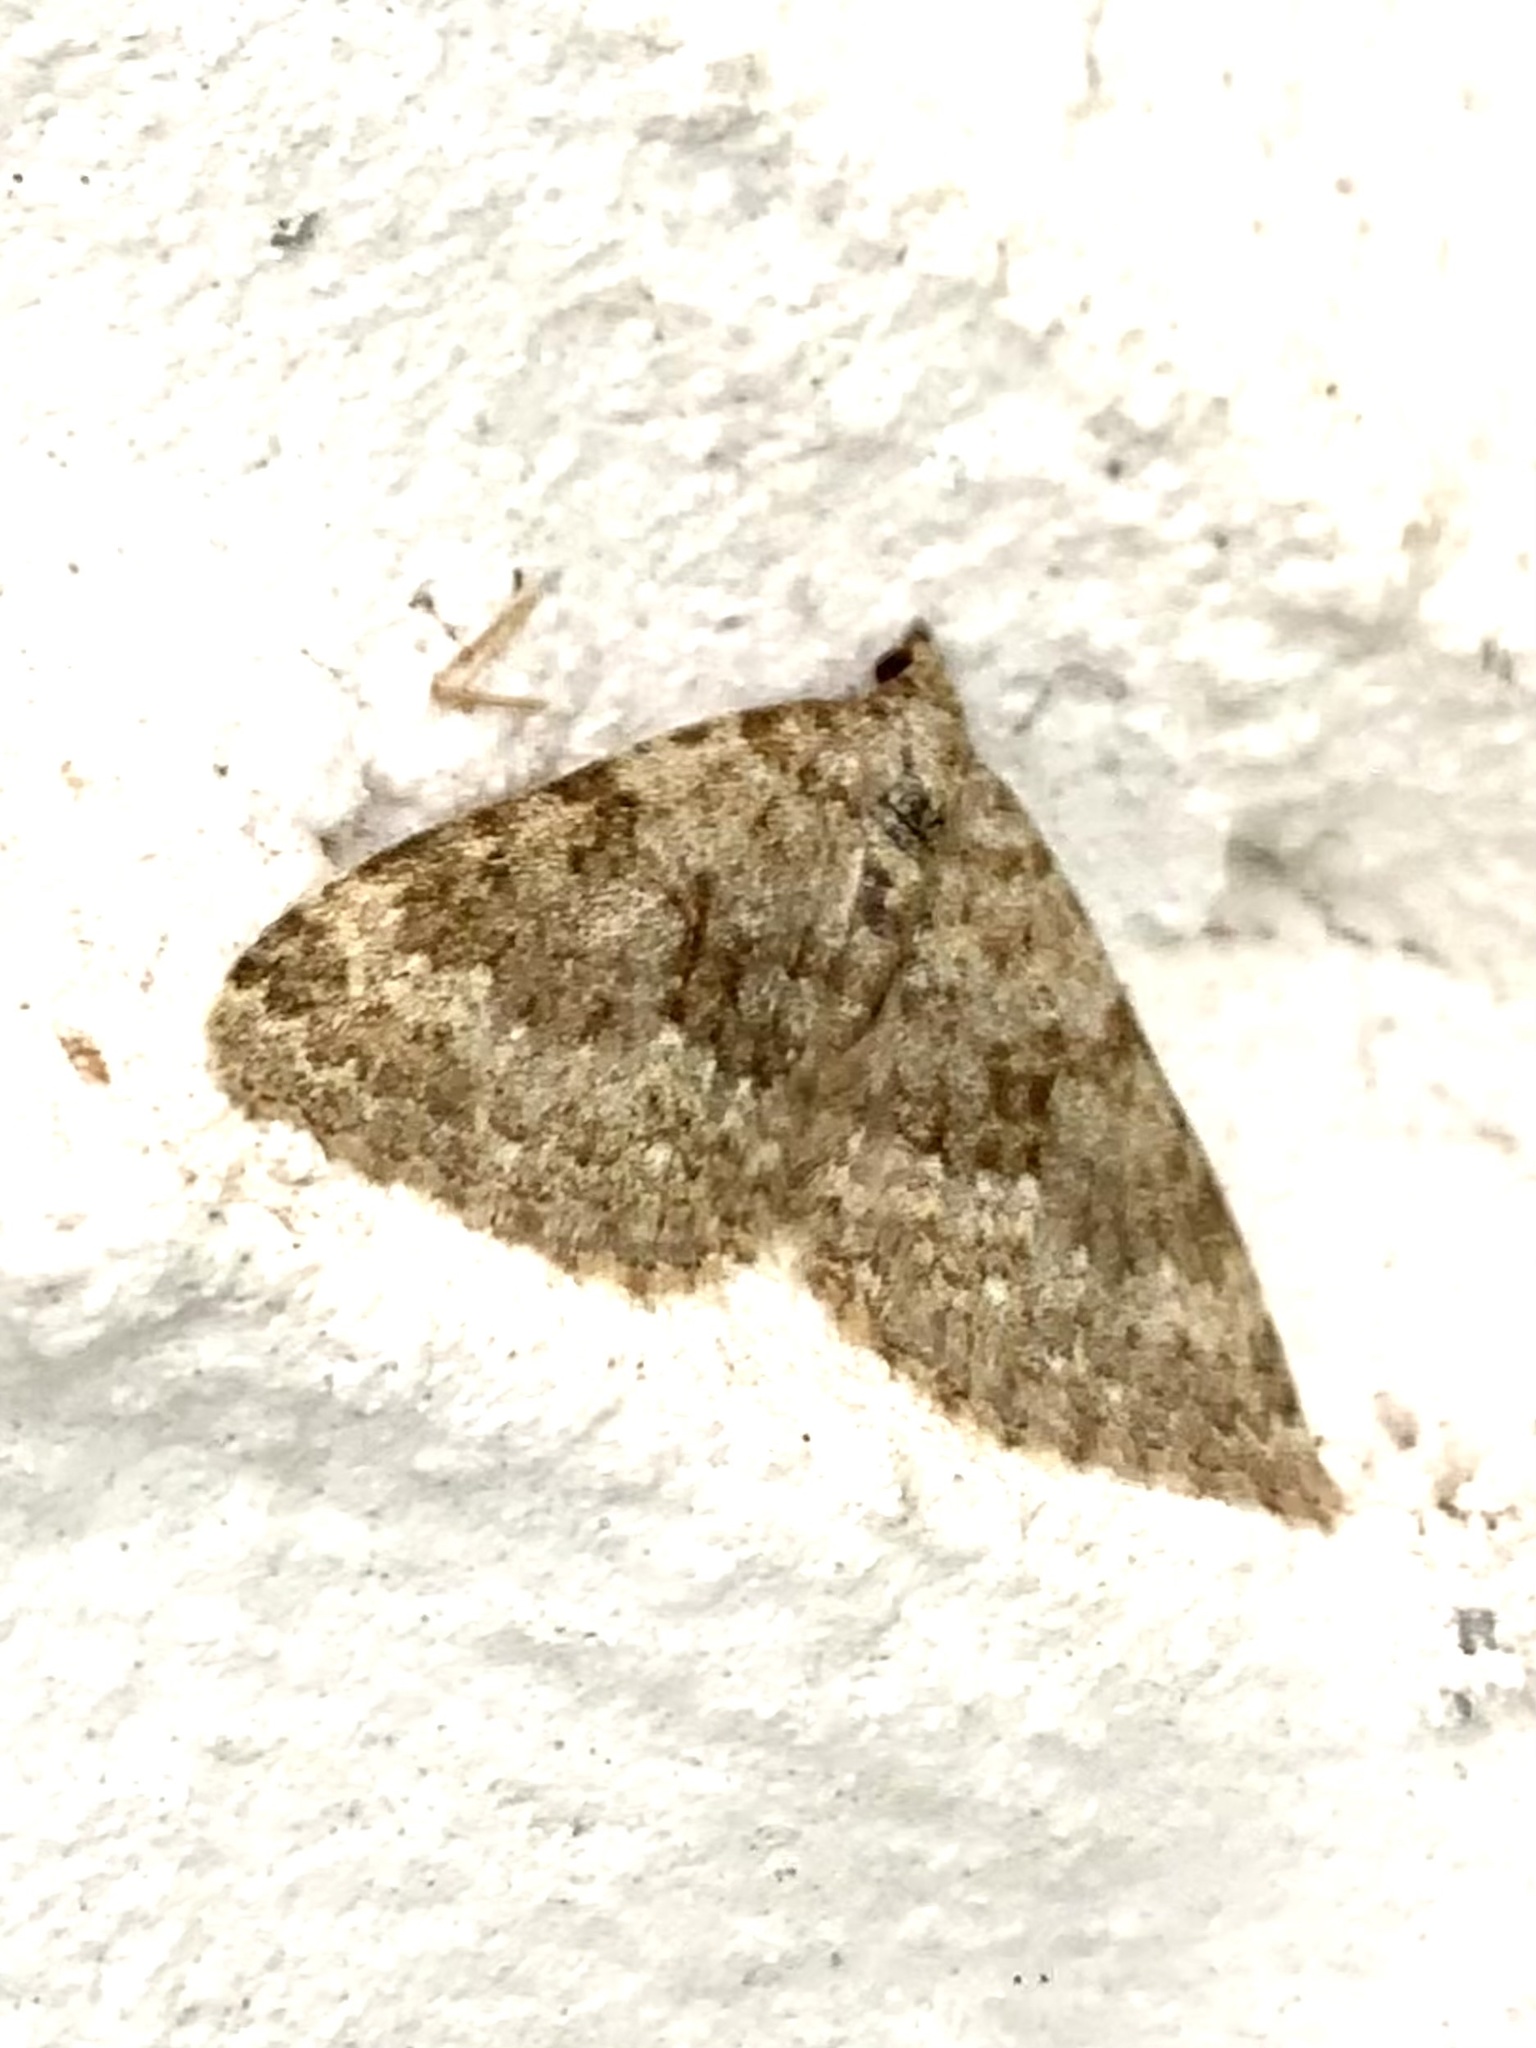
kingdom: Animalia
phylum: Arthropoda
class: Insecta
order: Lepidoptera
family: Geometridae
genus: Nebula
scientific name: Nebula salicata
